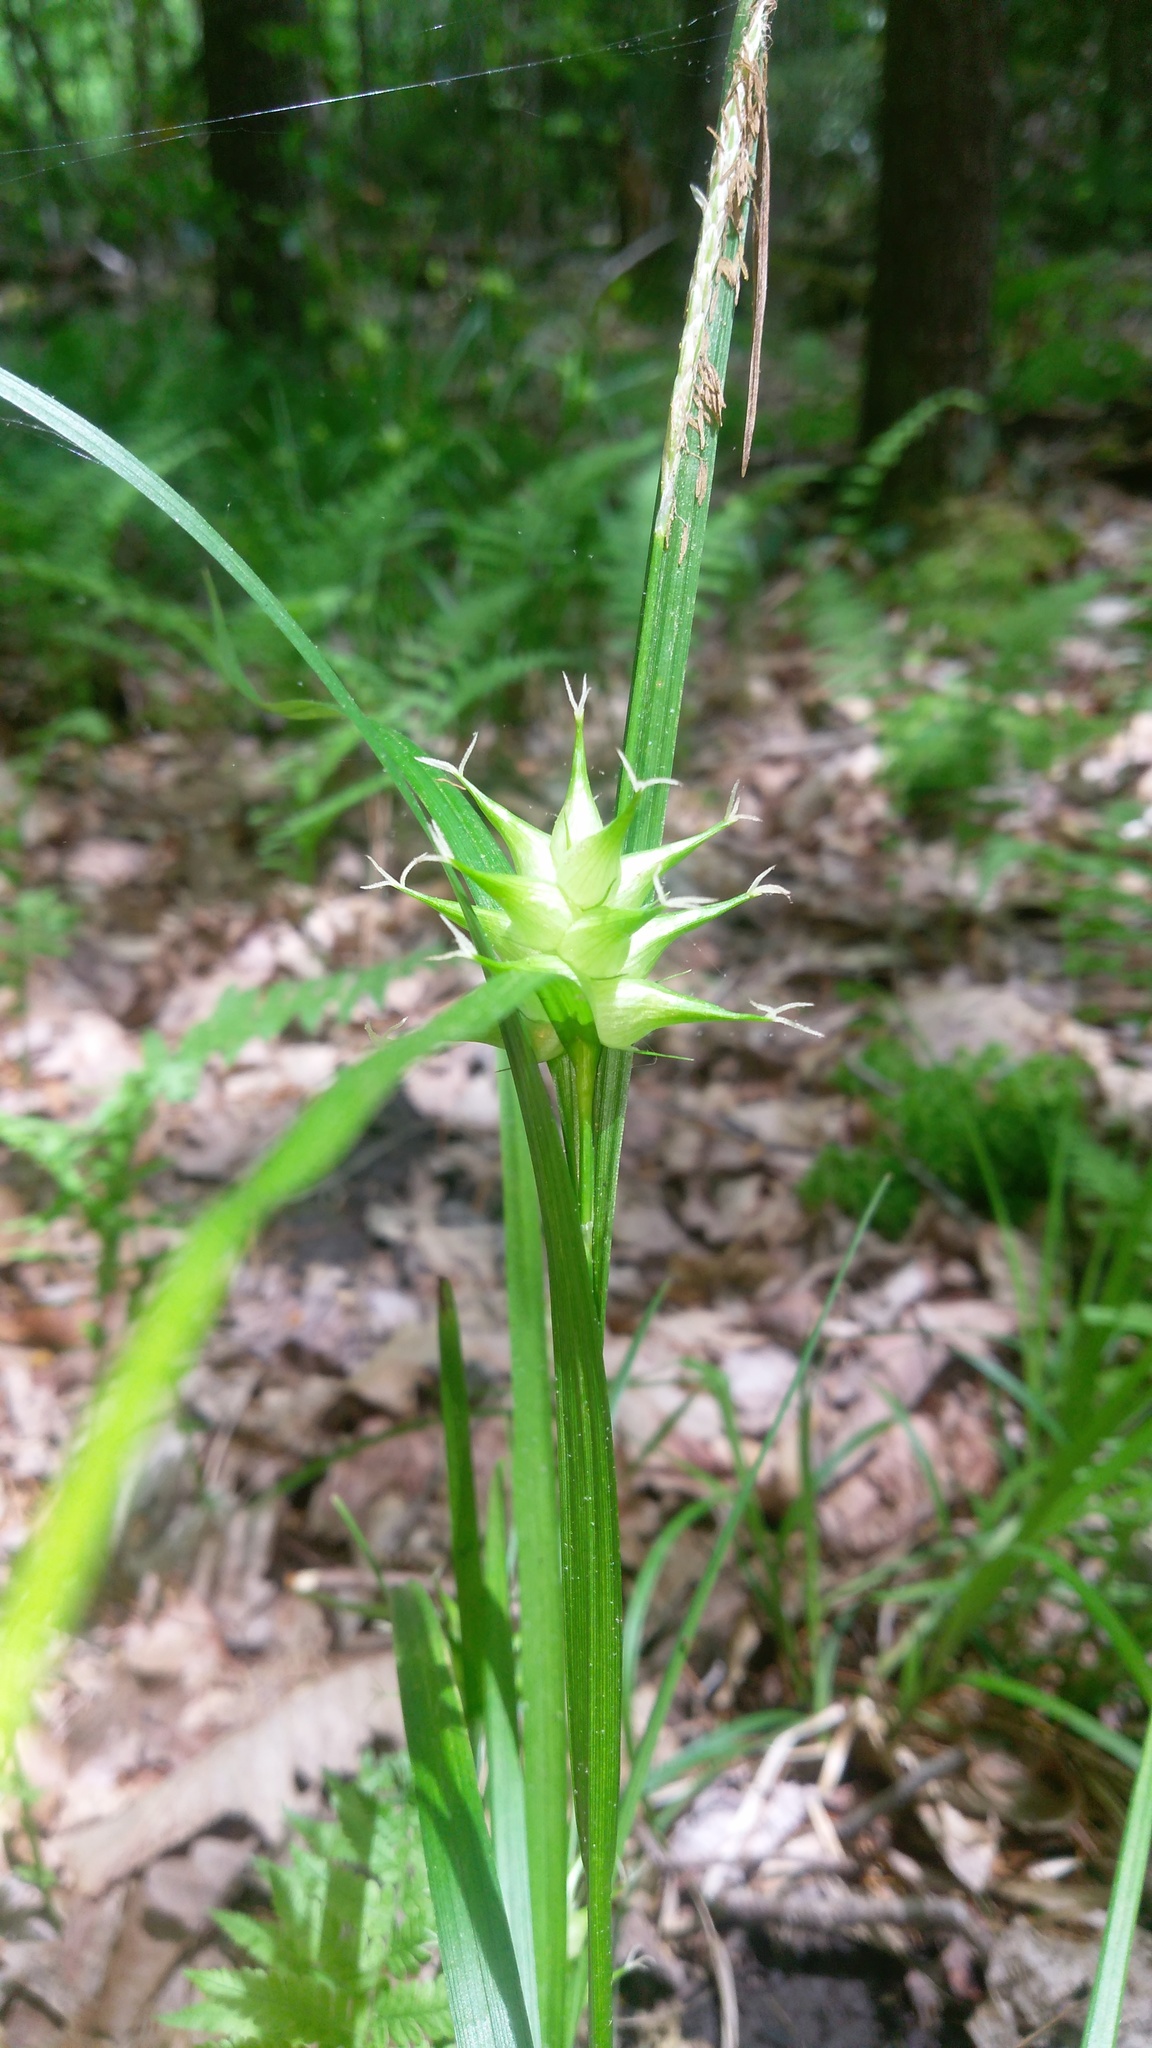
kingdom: Plantae
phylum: Tracheophyta
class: Liliopsida
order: Poales
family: Cyperaceae
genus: Carex
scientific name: Carex intumescens
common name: Greater bladder sedge
